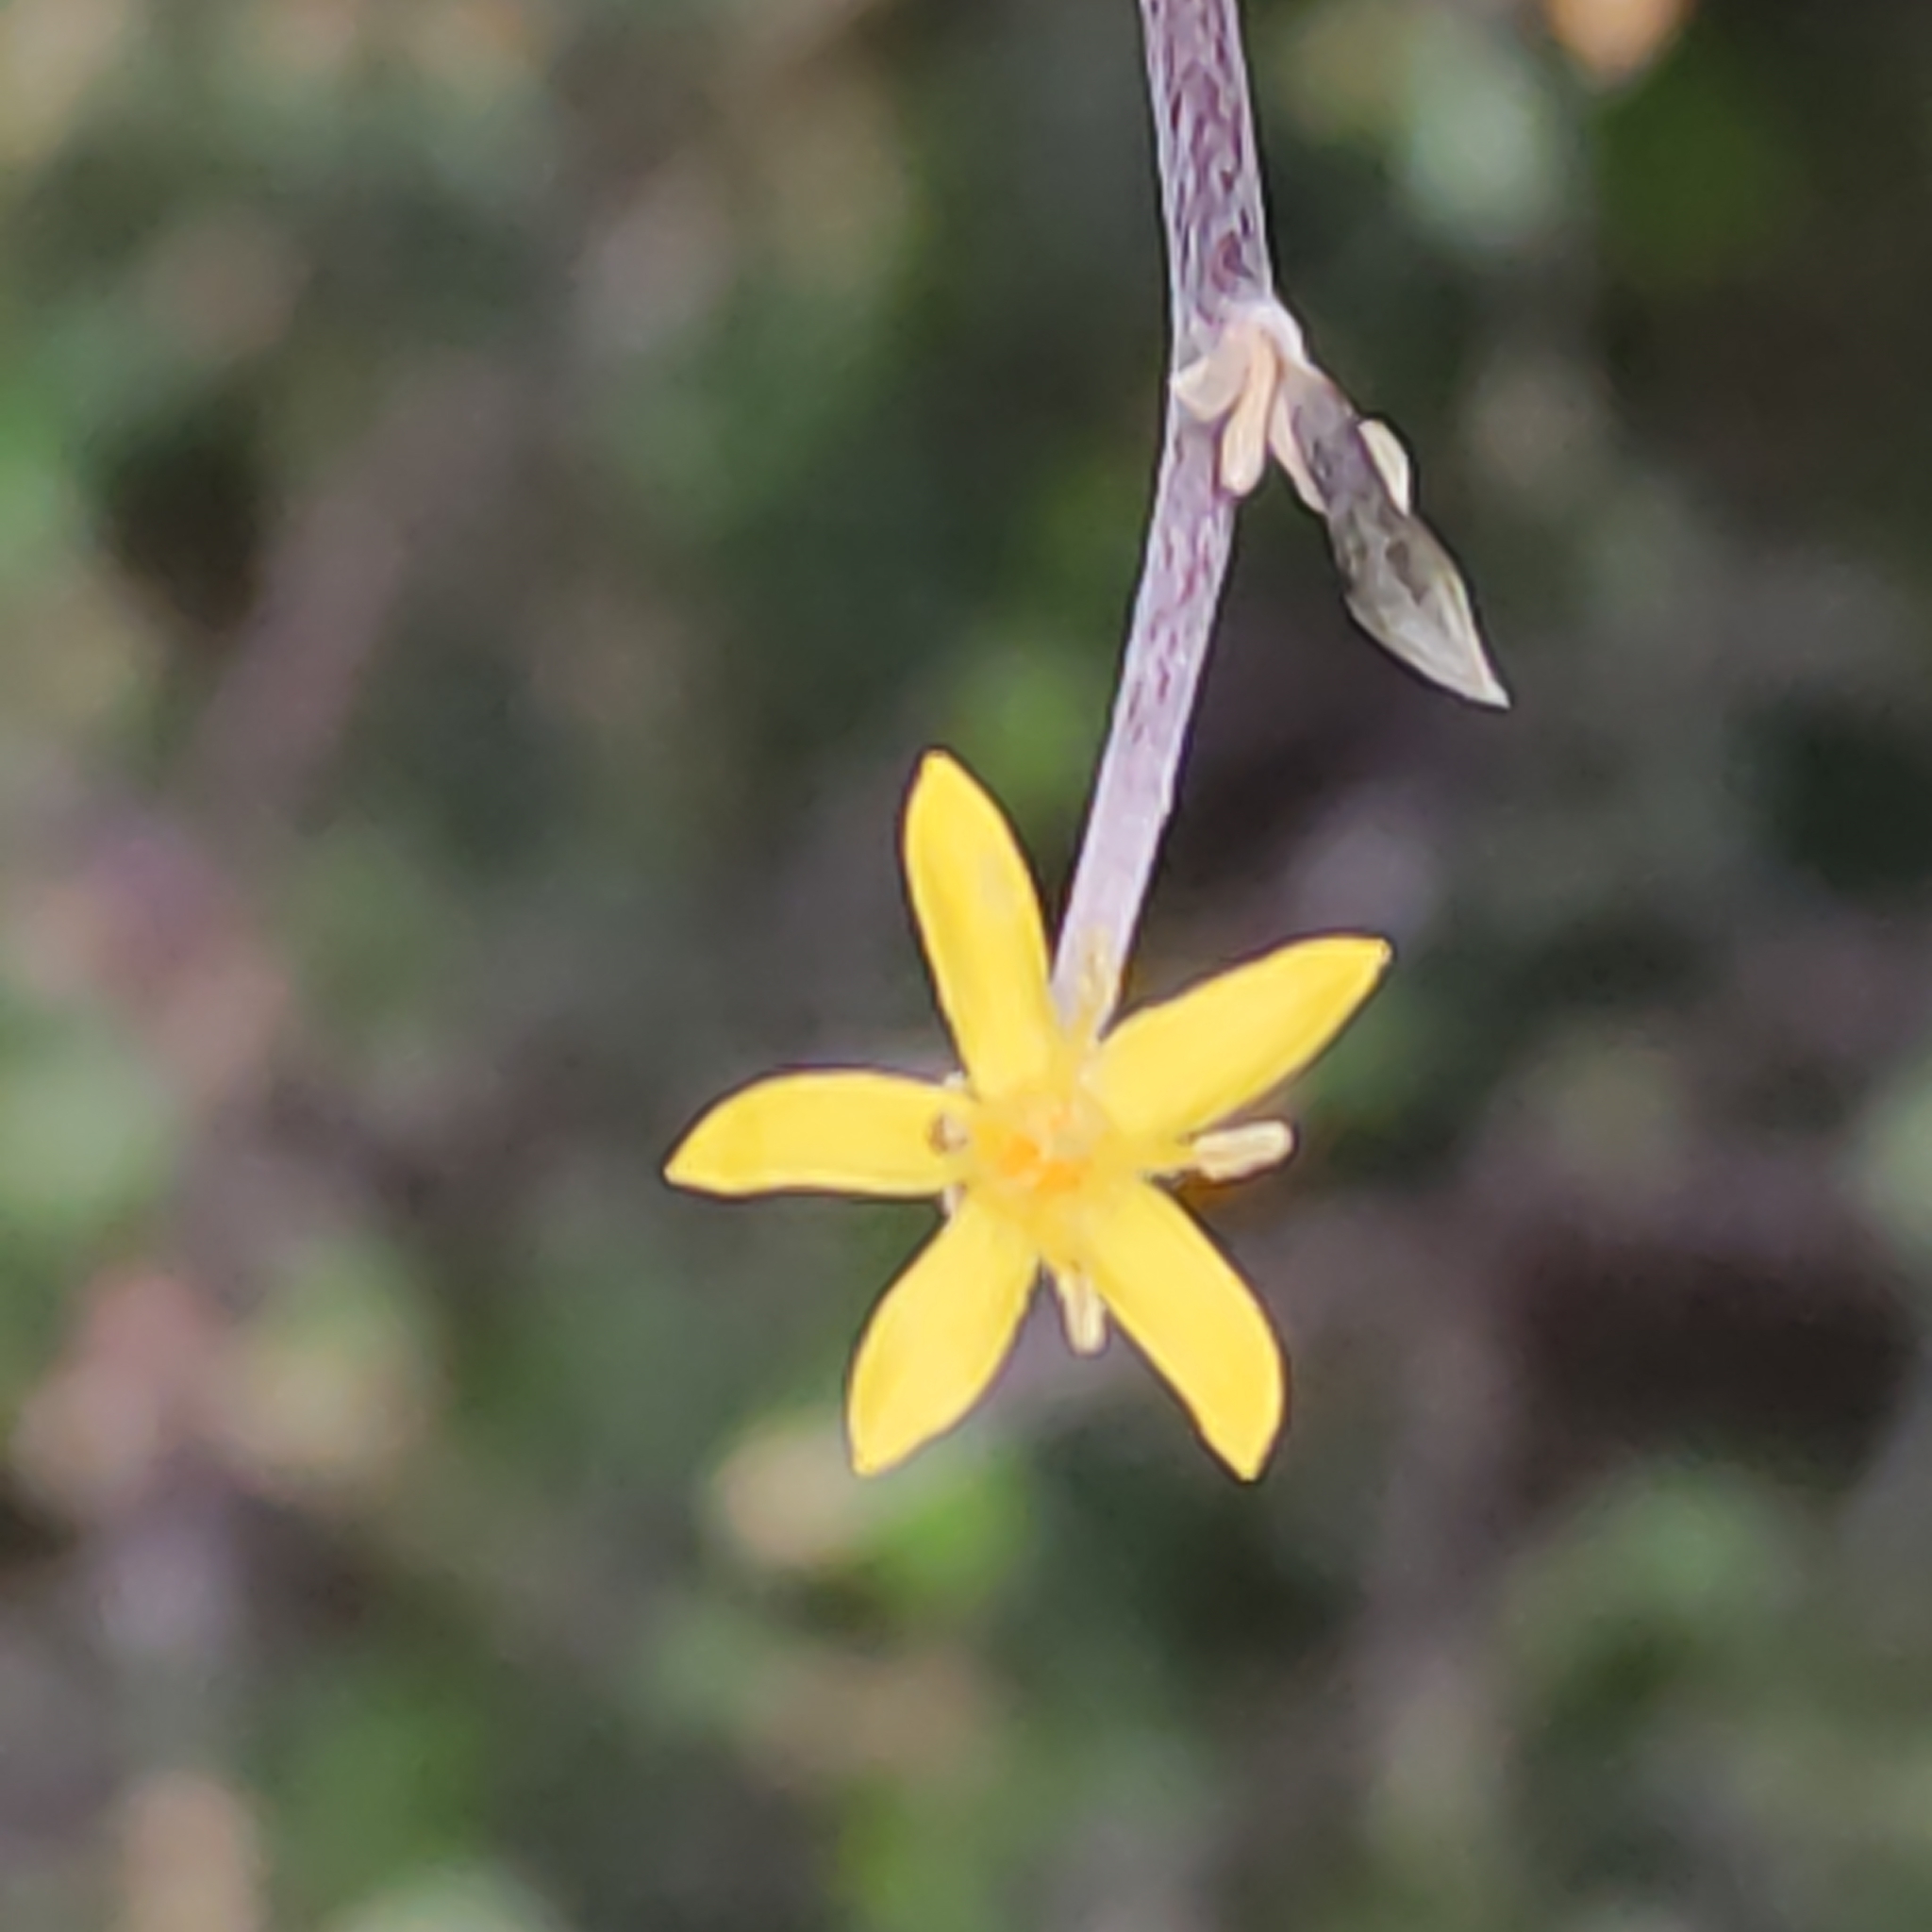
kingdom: Plantae
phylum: Tracheophyta
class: Magnoliopsida
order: Asterales
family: Argophyllaceae
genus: Corokia
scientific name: Corokia cotoneaster
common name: Wire nettingbush
